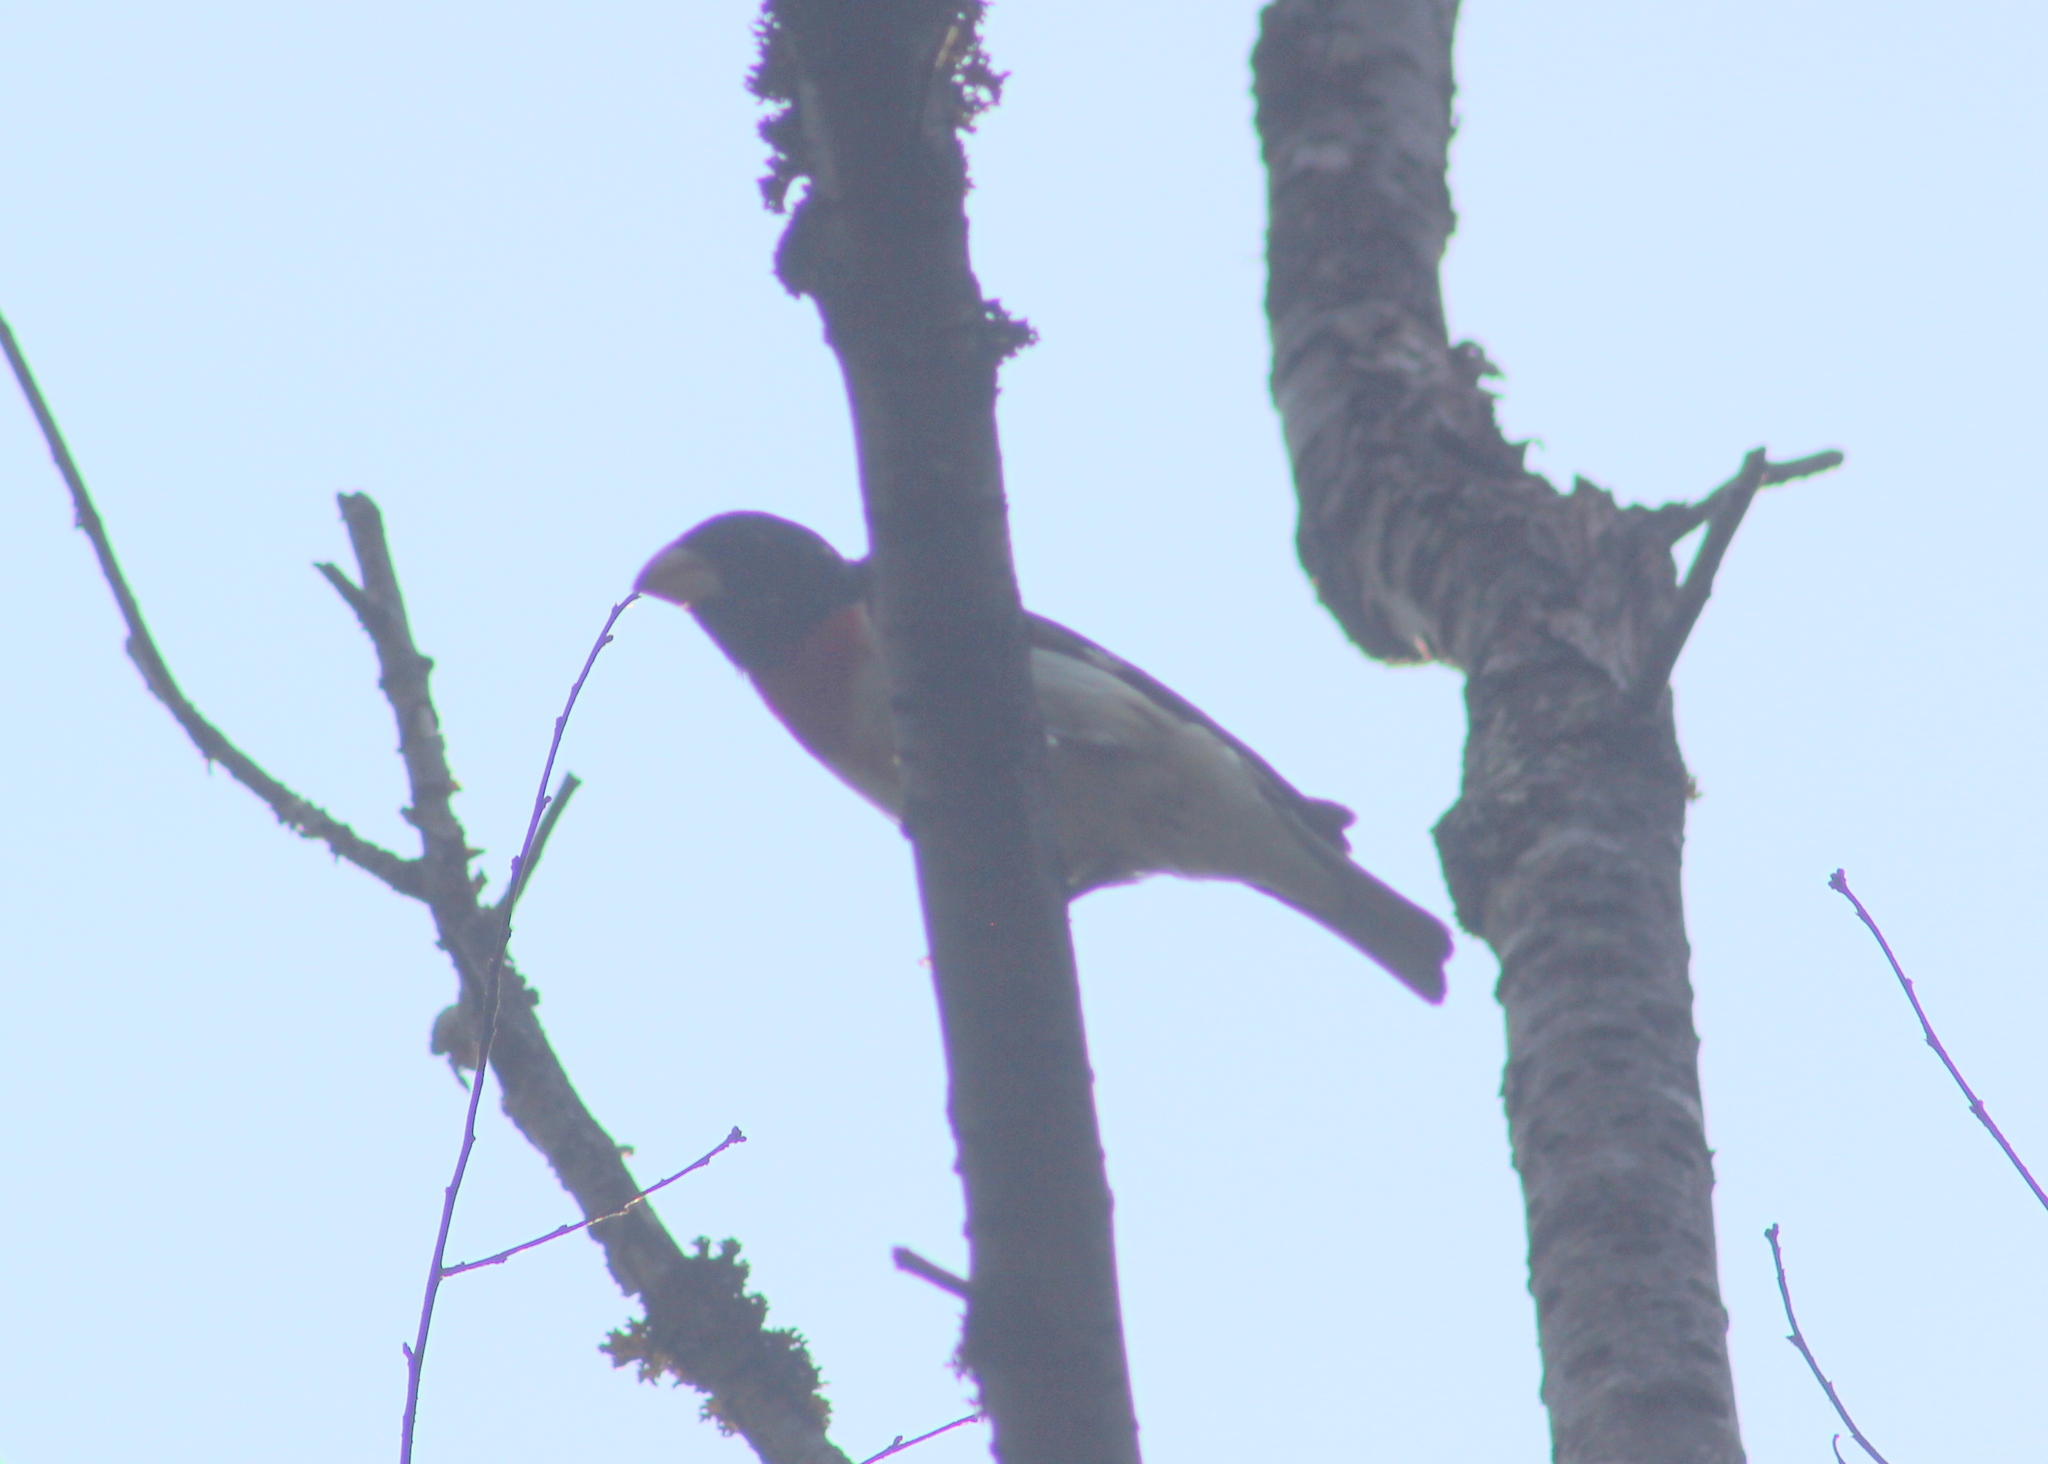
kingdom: Animalia
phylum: Chordata
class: Aves
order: Passeriformes
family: Cardinalidae
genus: Pheucticus
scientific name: Pheucticus ludovicianus
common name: Rose-breasted grosbeak
